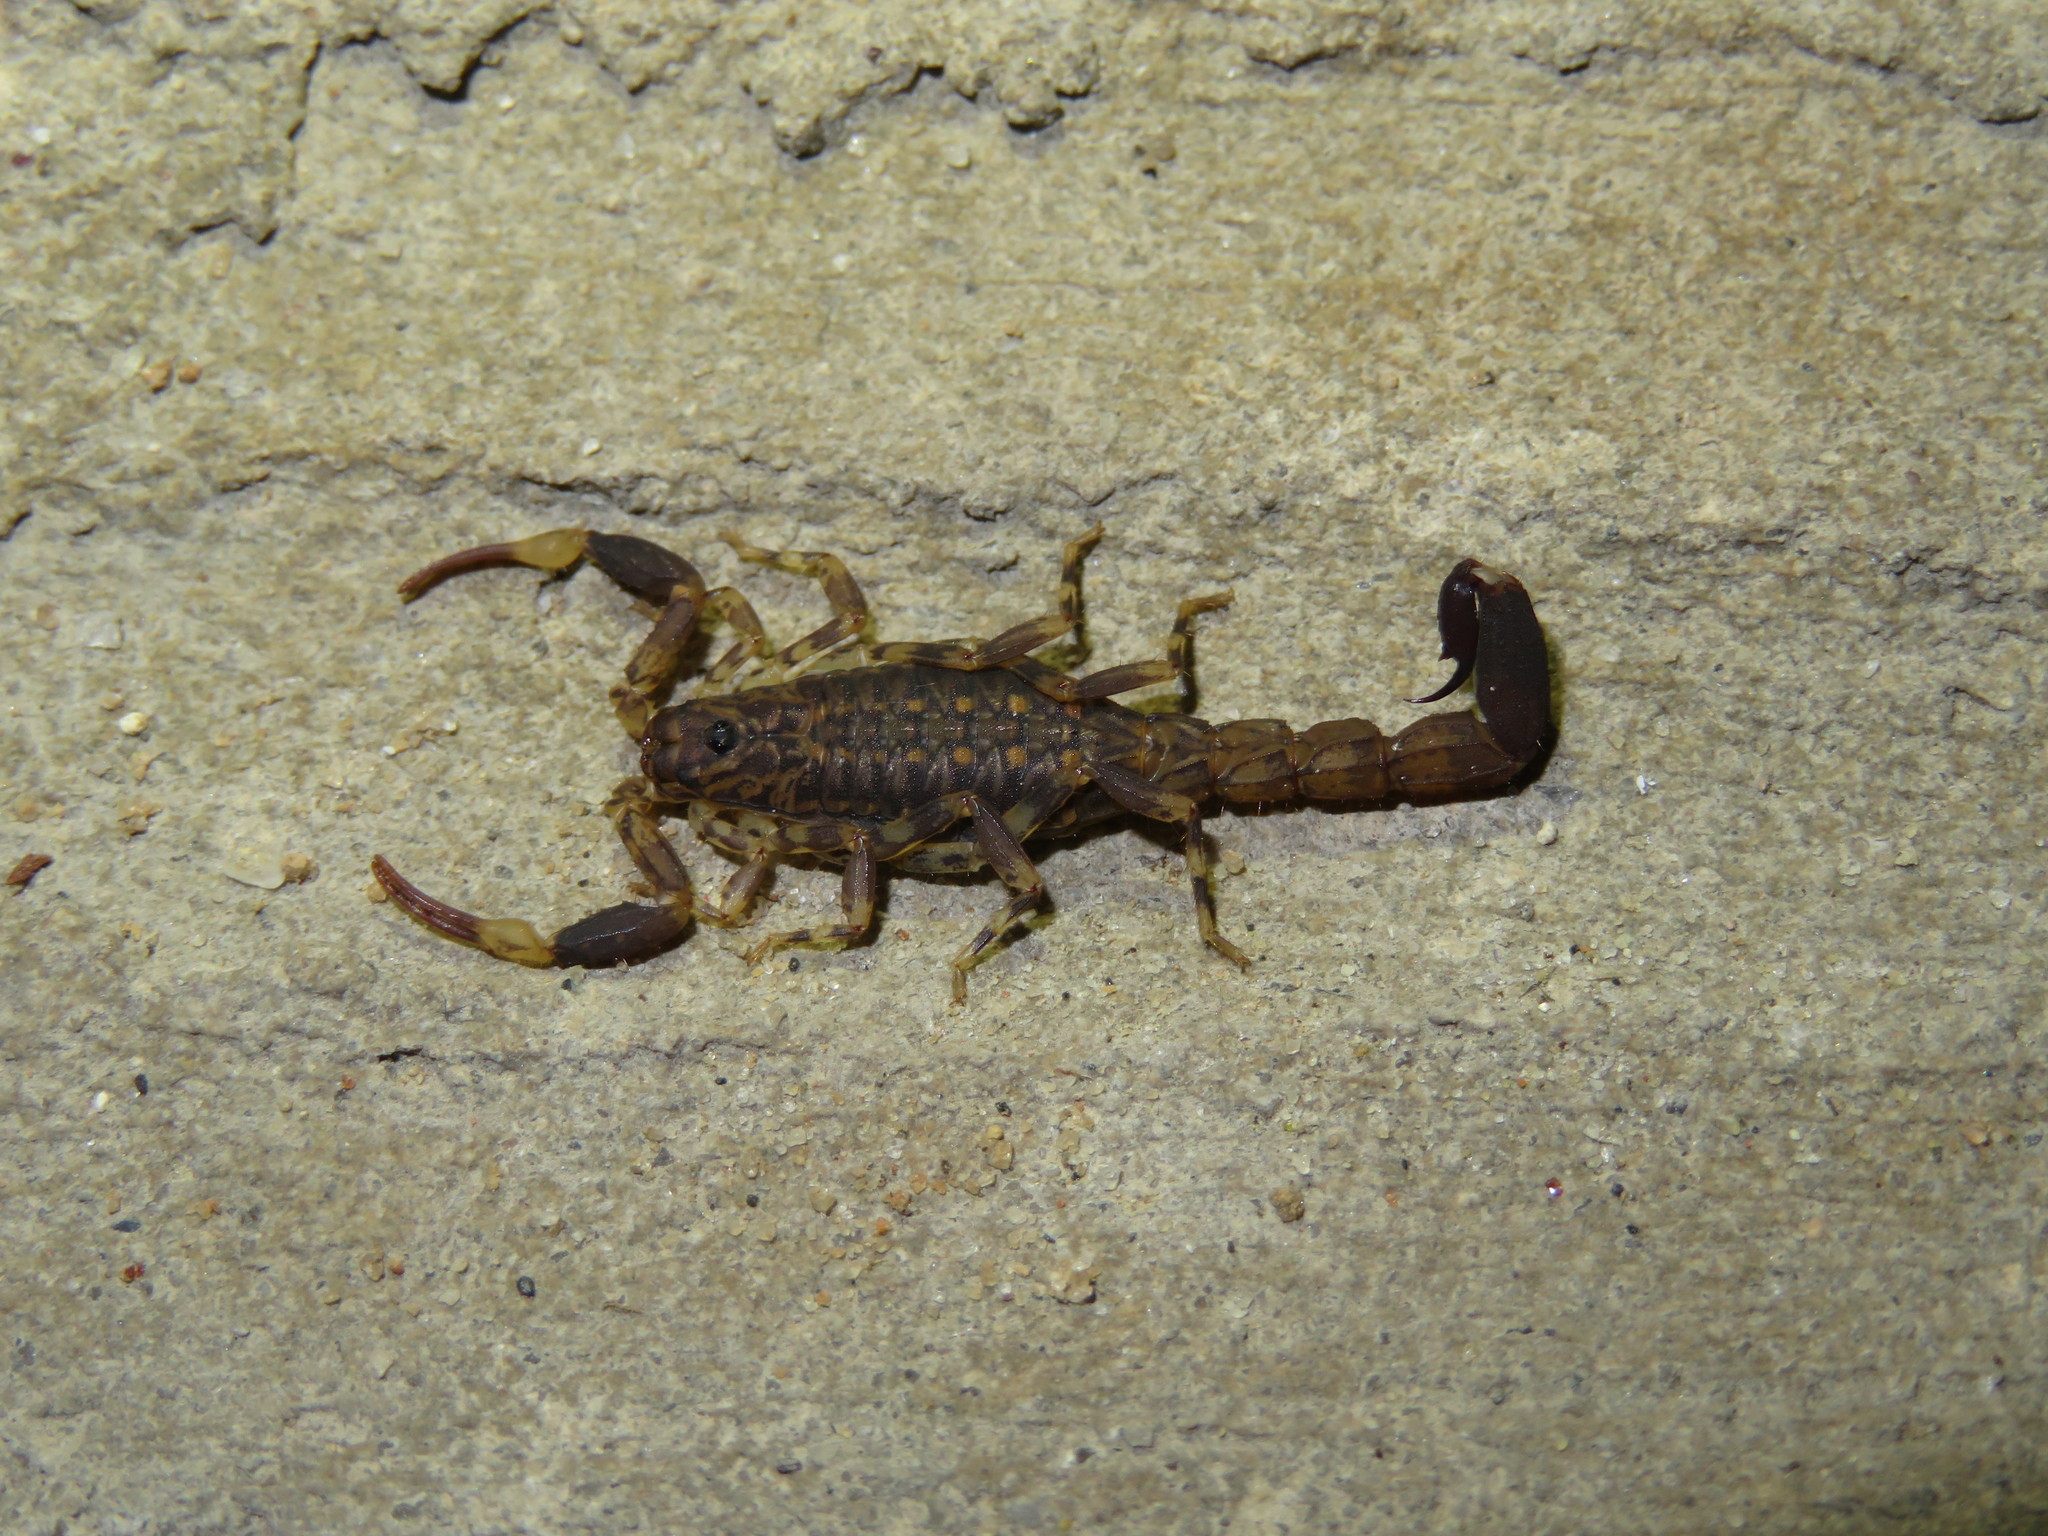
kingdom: Animalia
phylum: Arthropoda
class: Arachnida
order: Scorpiones
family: Buthidae
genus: Afrolychas
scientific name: Afrolychas burdoi
